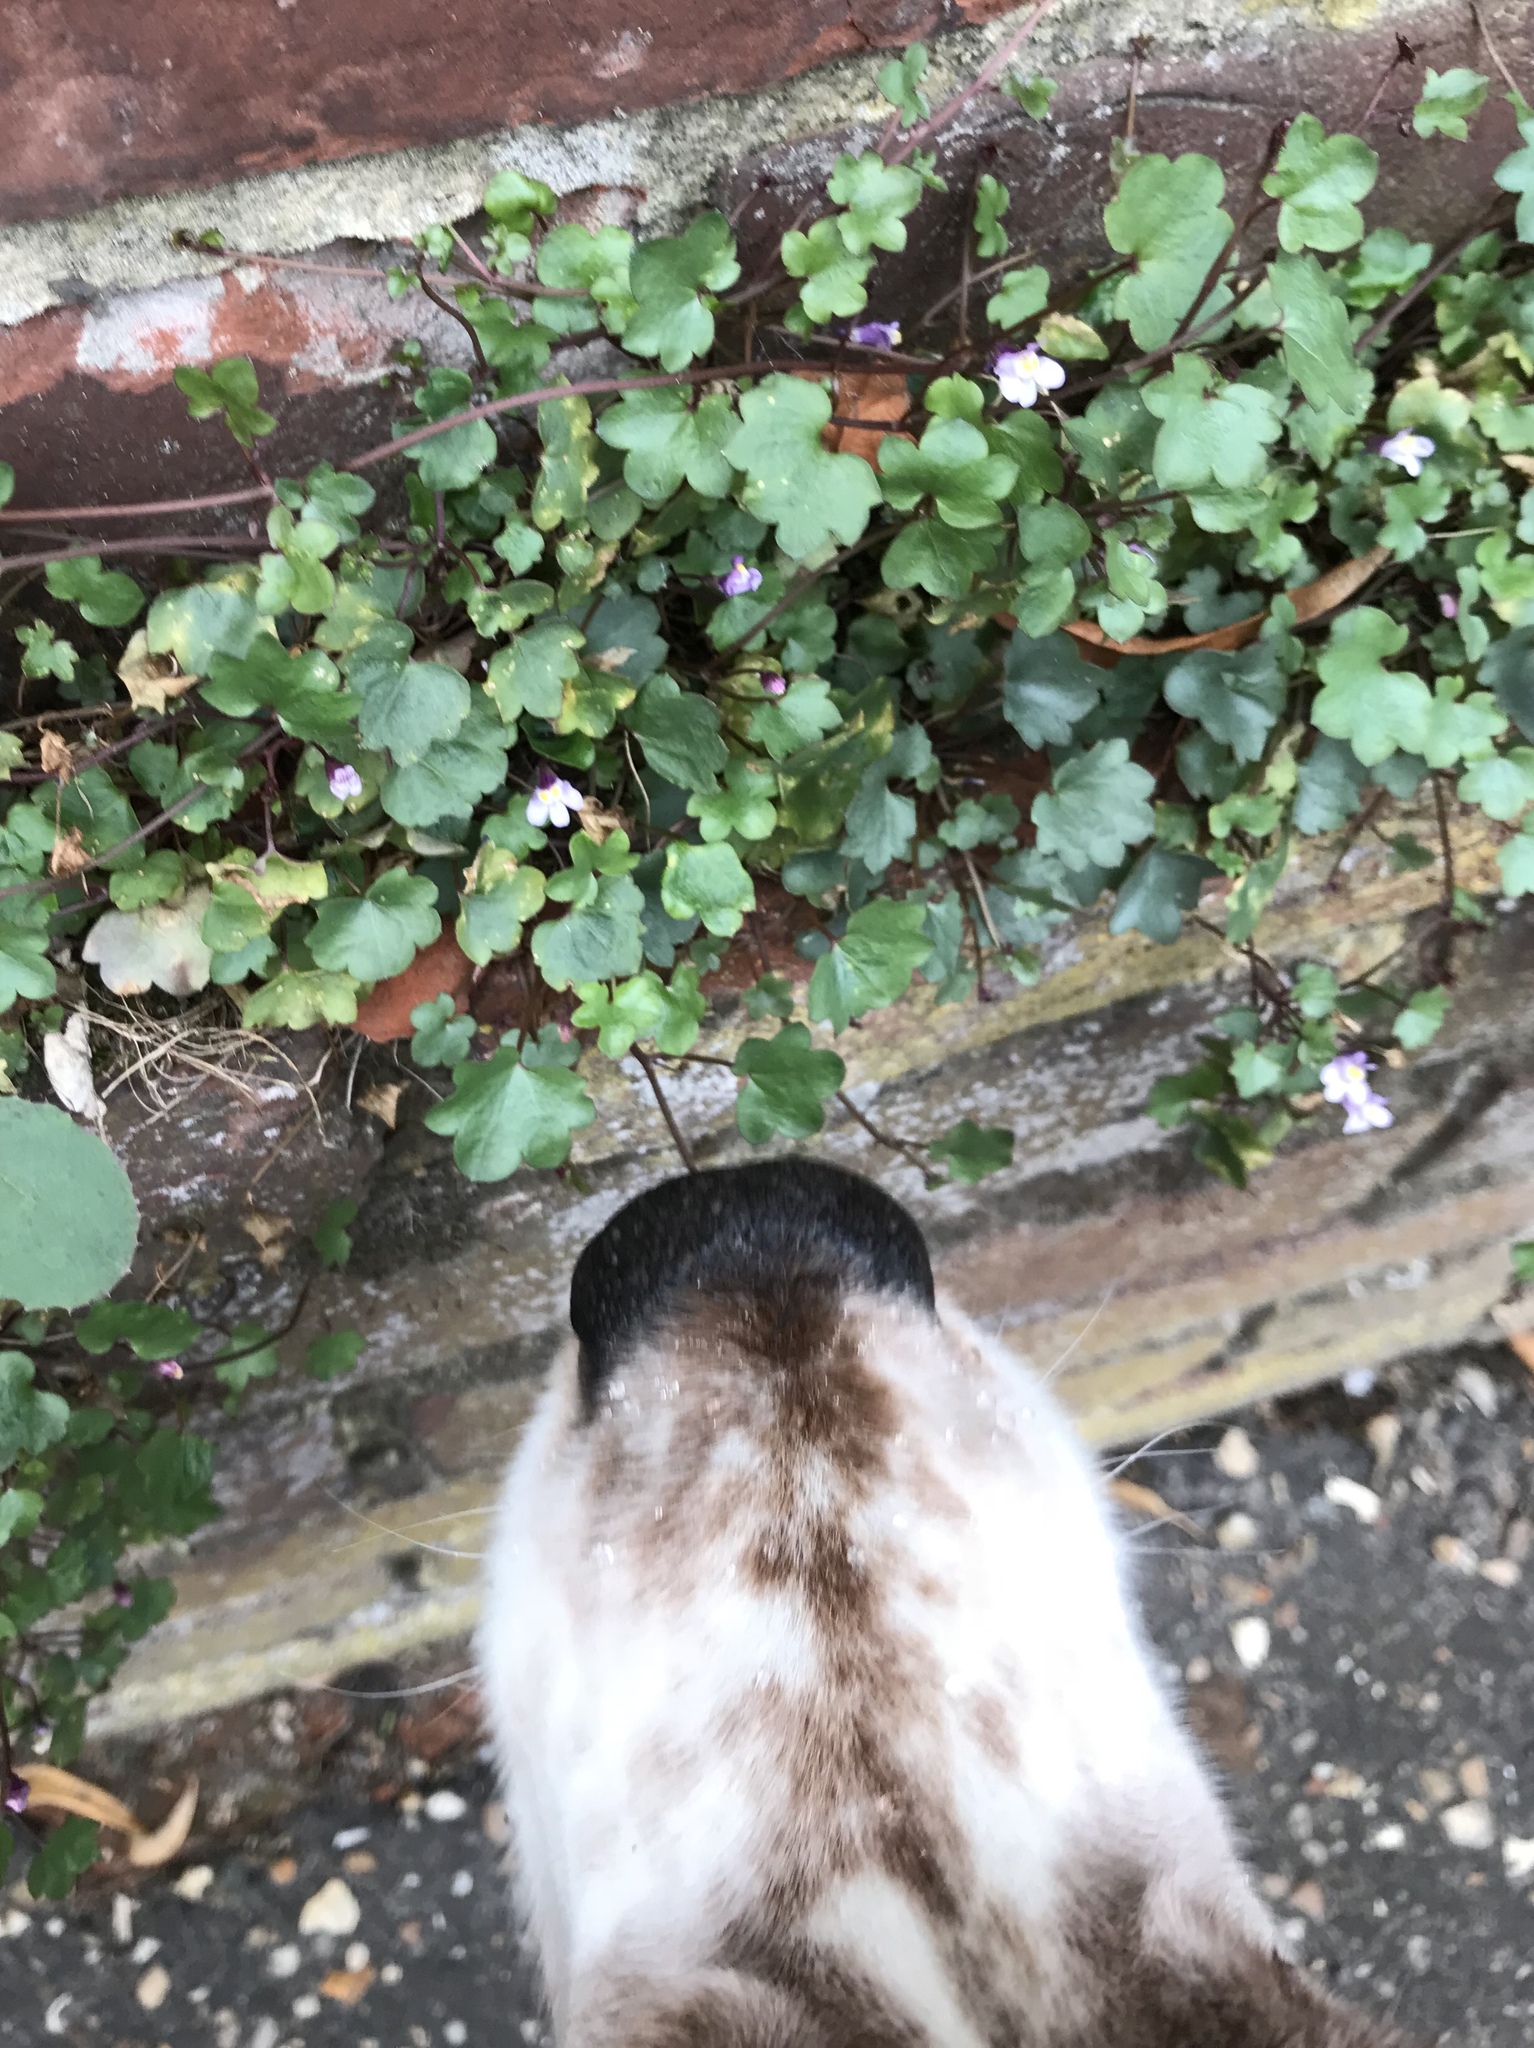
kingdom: Plantae
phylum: Tracheophyta
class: Magnoliopsida
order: Lamiales
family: Plantaginaceae
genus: Cymbalaria
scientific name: Cymbalaria muralis
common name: Ivy-leaved toadflax
